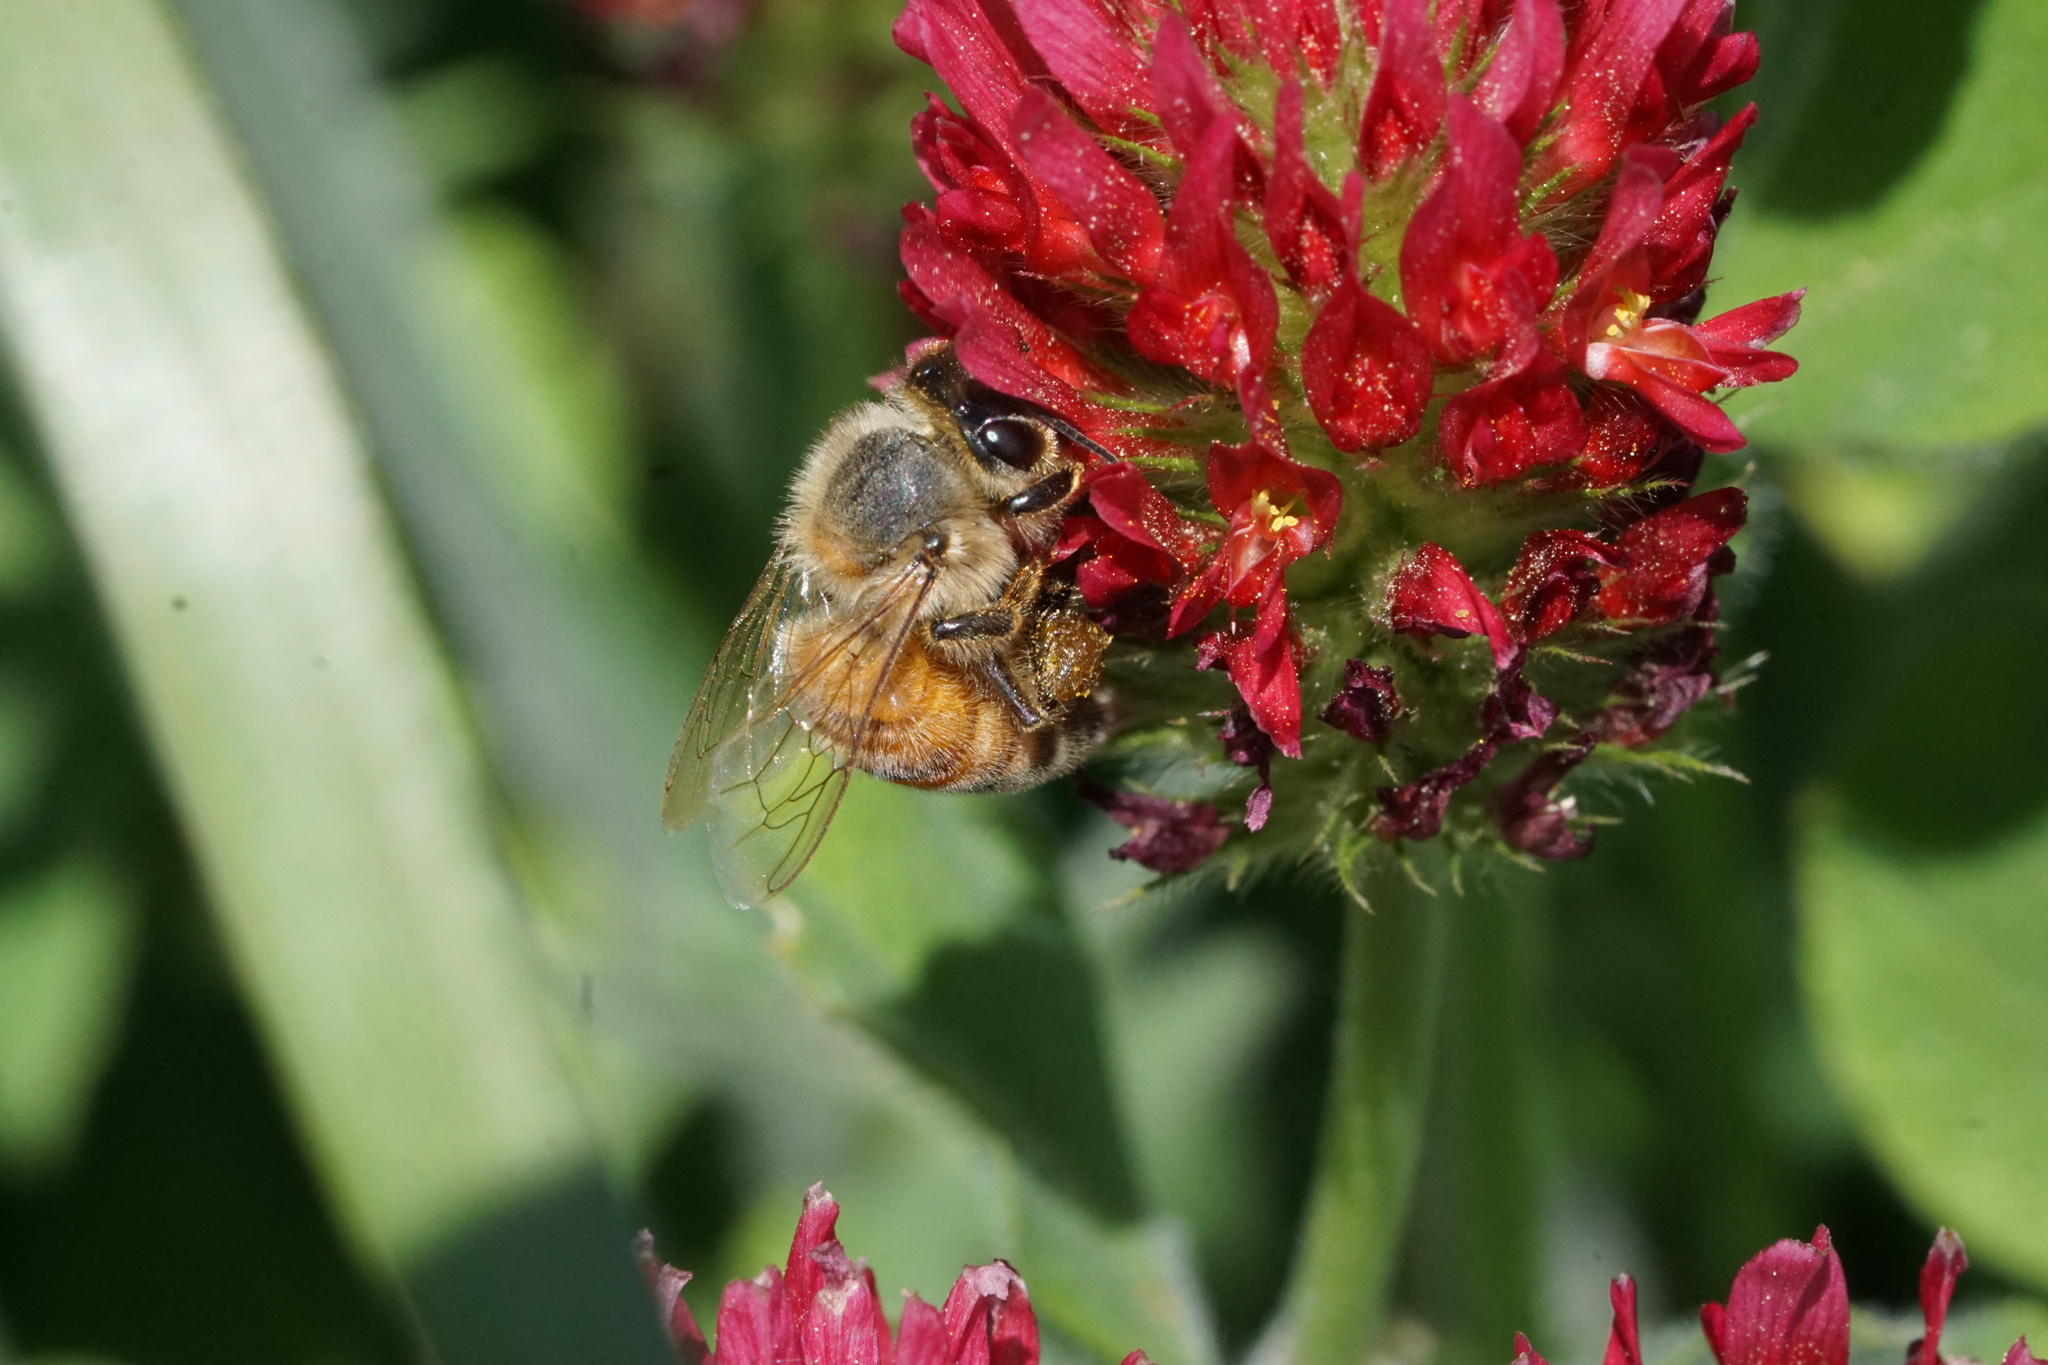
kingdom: Animalia
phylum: Arthropoda
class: Insecta
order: Hymenoptera
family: Apidae
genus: Apis
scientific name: Apis mellifera
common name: Honey bee
